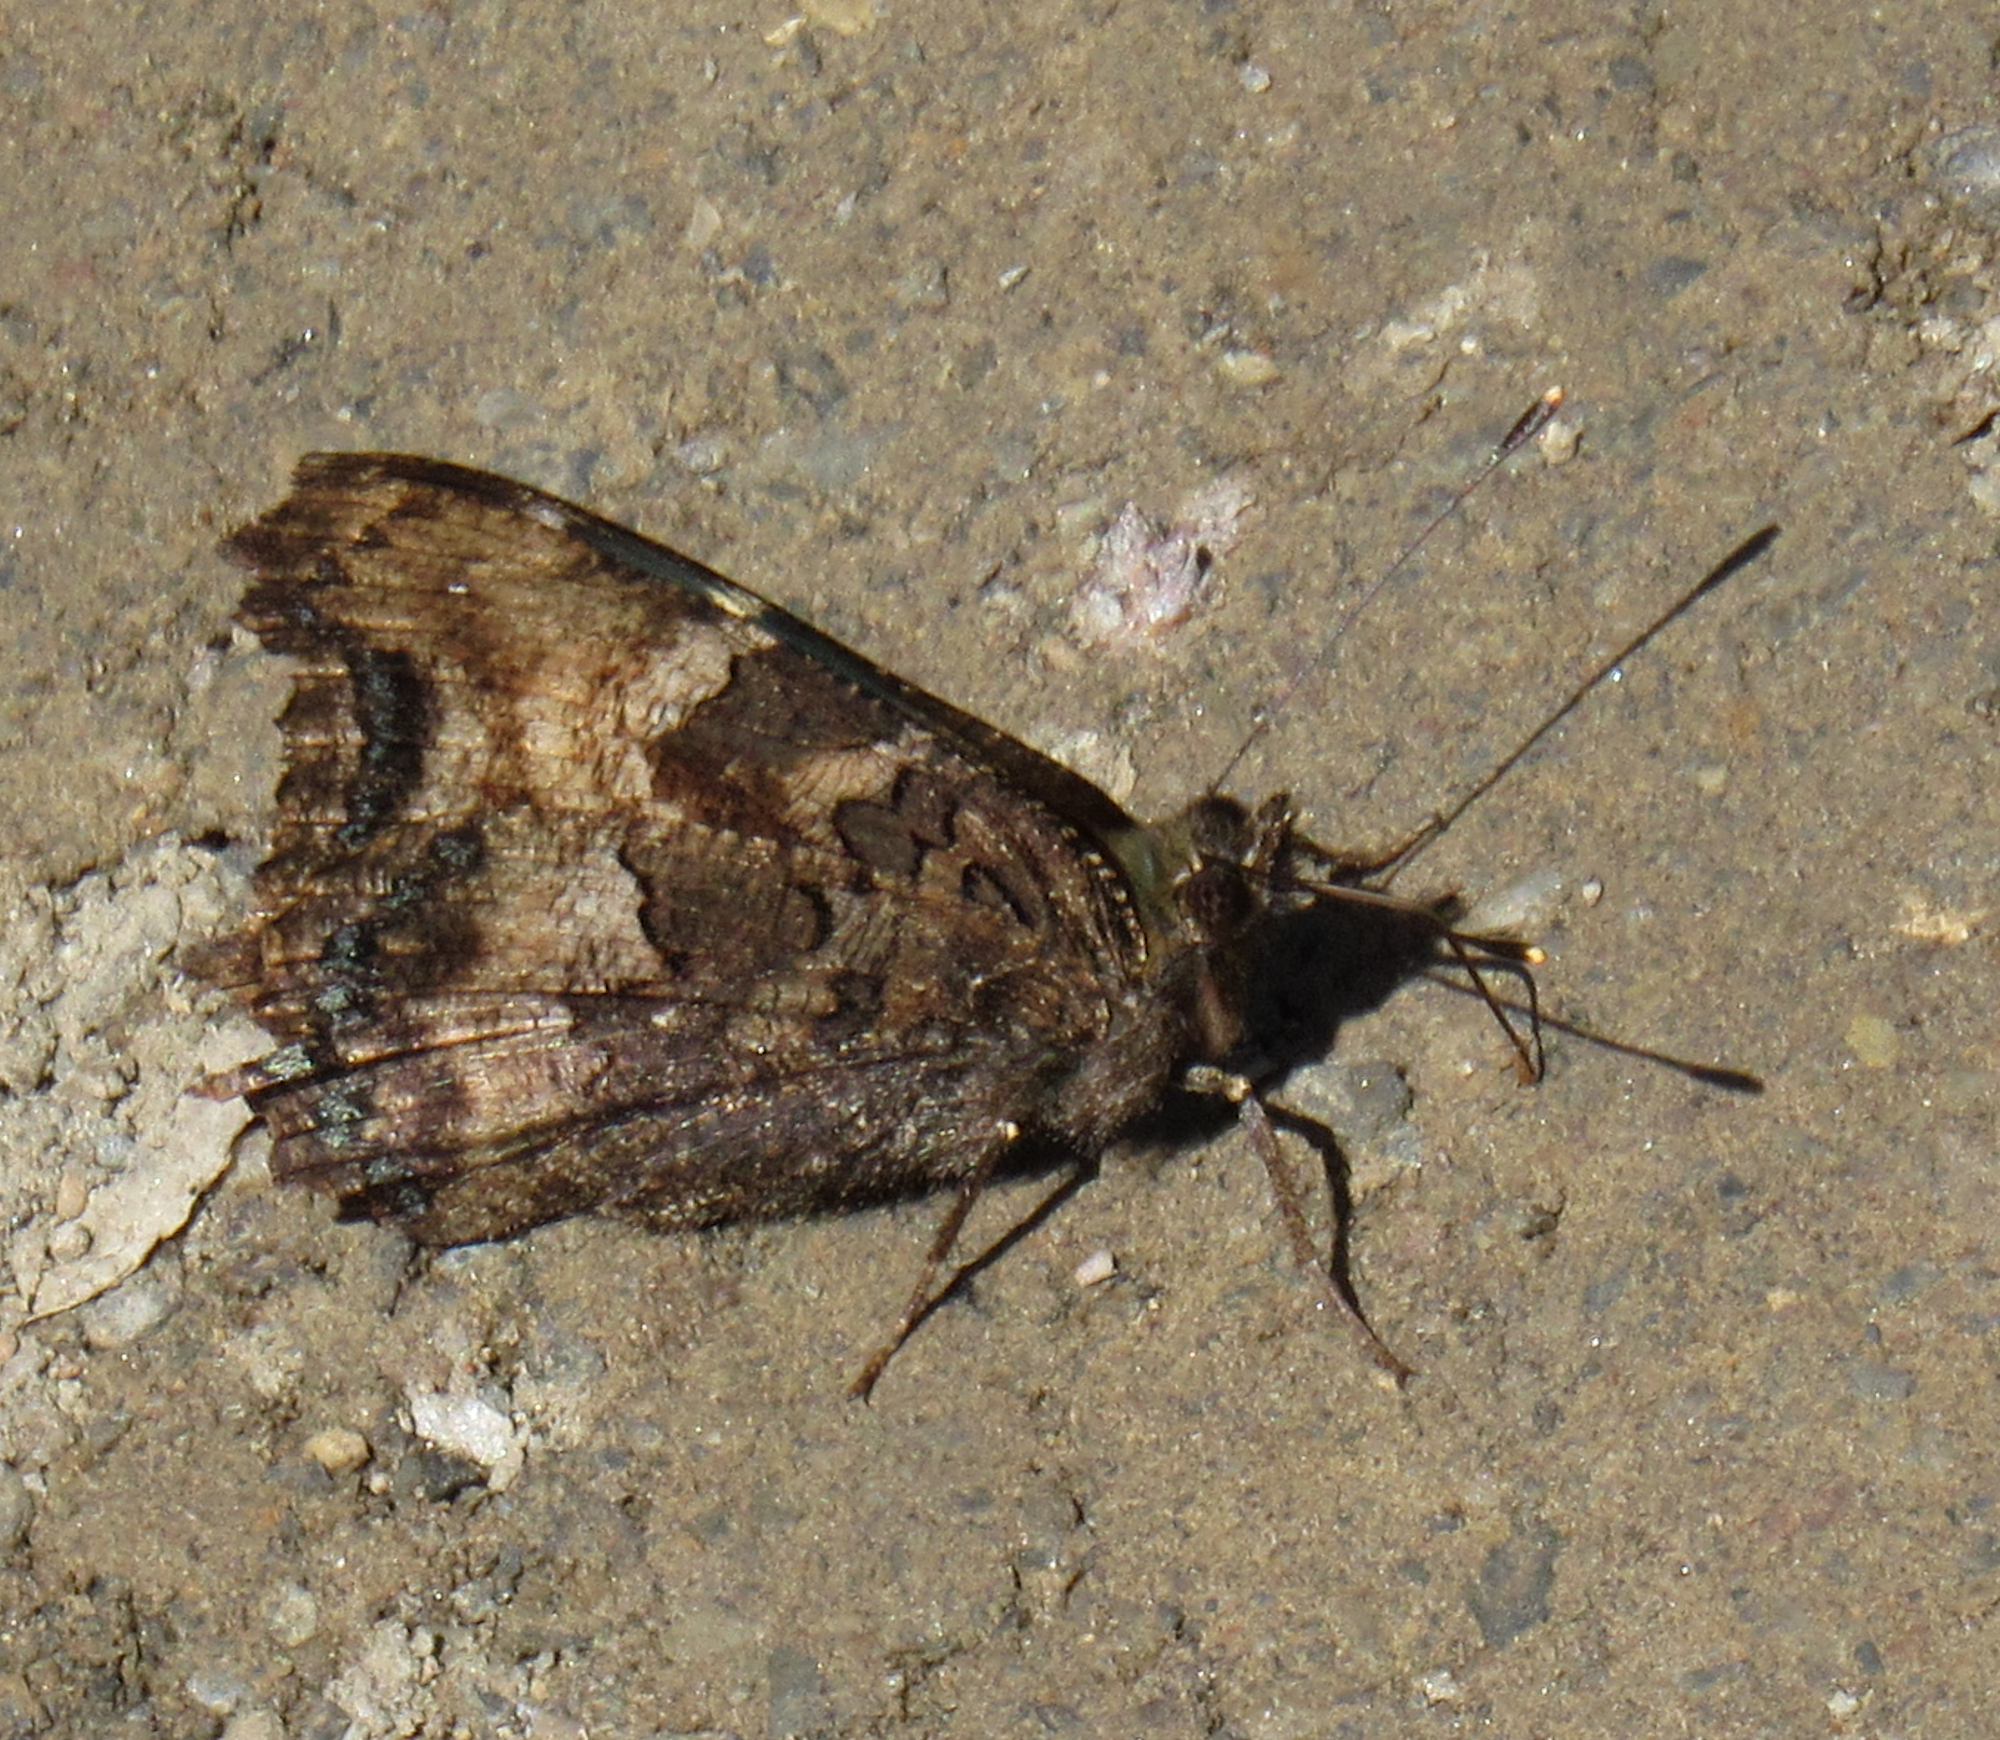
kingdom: Animalia
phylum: Arthropoda
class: Insecta
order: Lepidoptera
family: Nymphalidae
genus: Nymphalis
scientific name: Nymphalis californica
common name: California tortoiseshell
